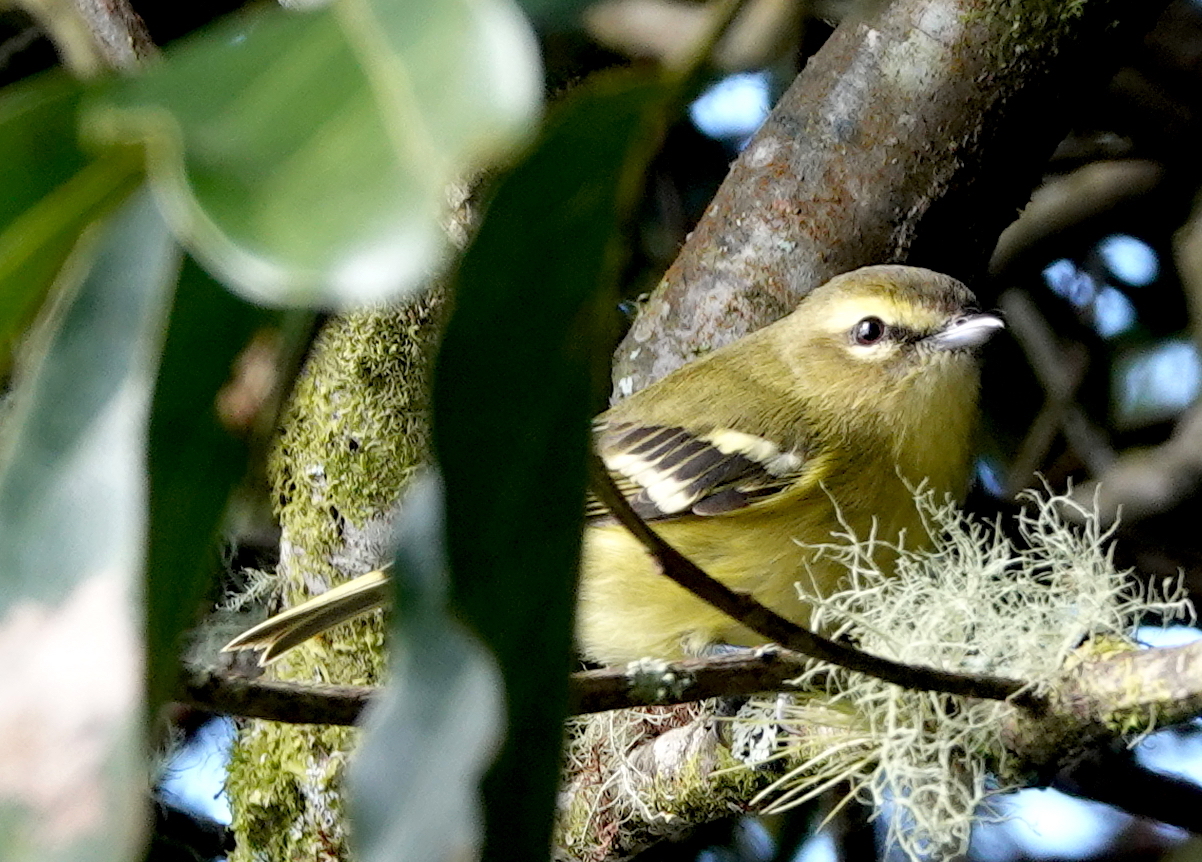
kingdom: Animalia
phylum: Chordata
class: Aves
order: Passeriformes
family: Vireonidae
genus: Vireo
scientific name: Vireo carmioli
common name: Yellow-winged vireo
